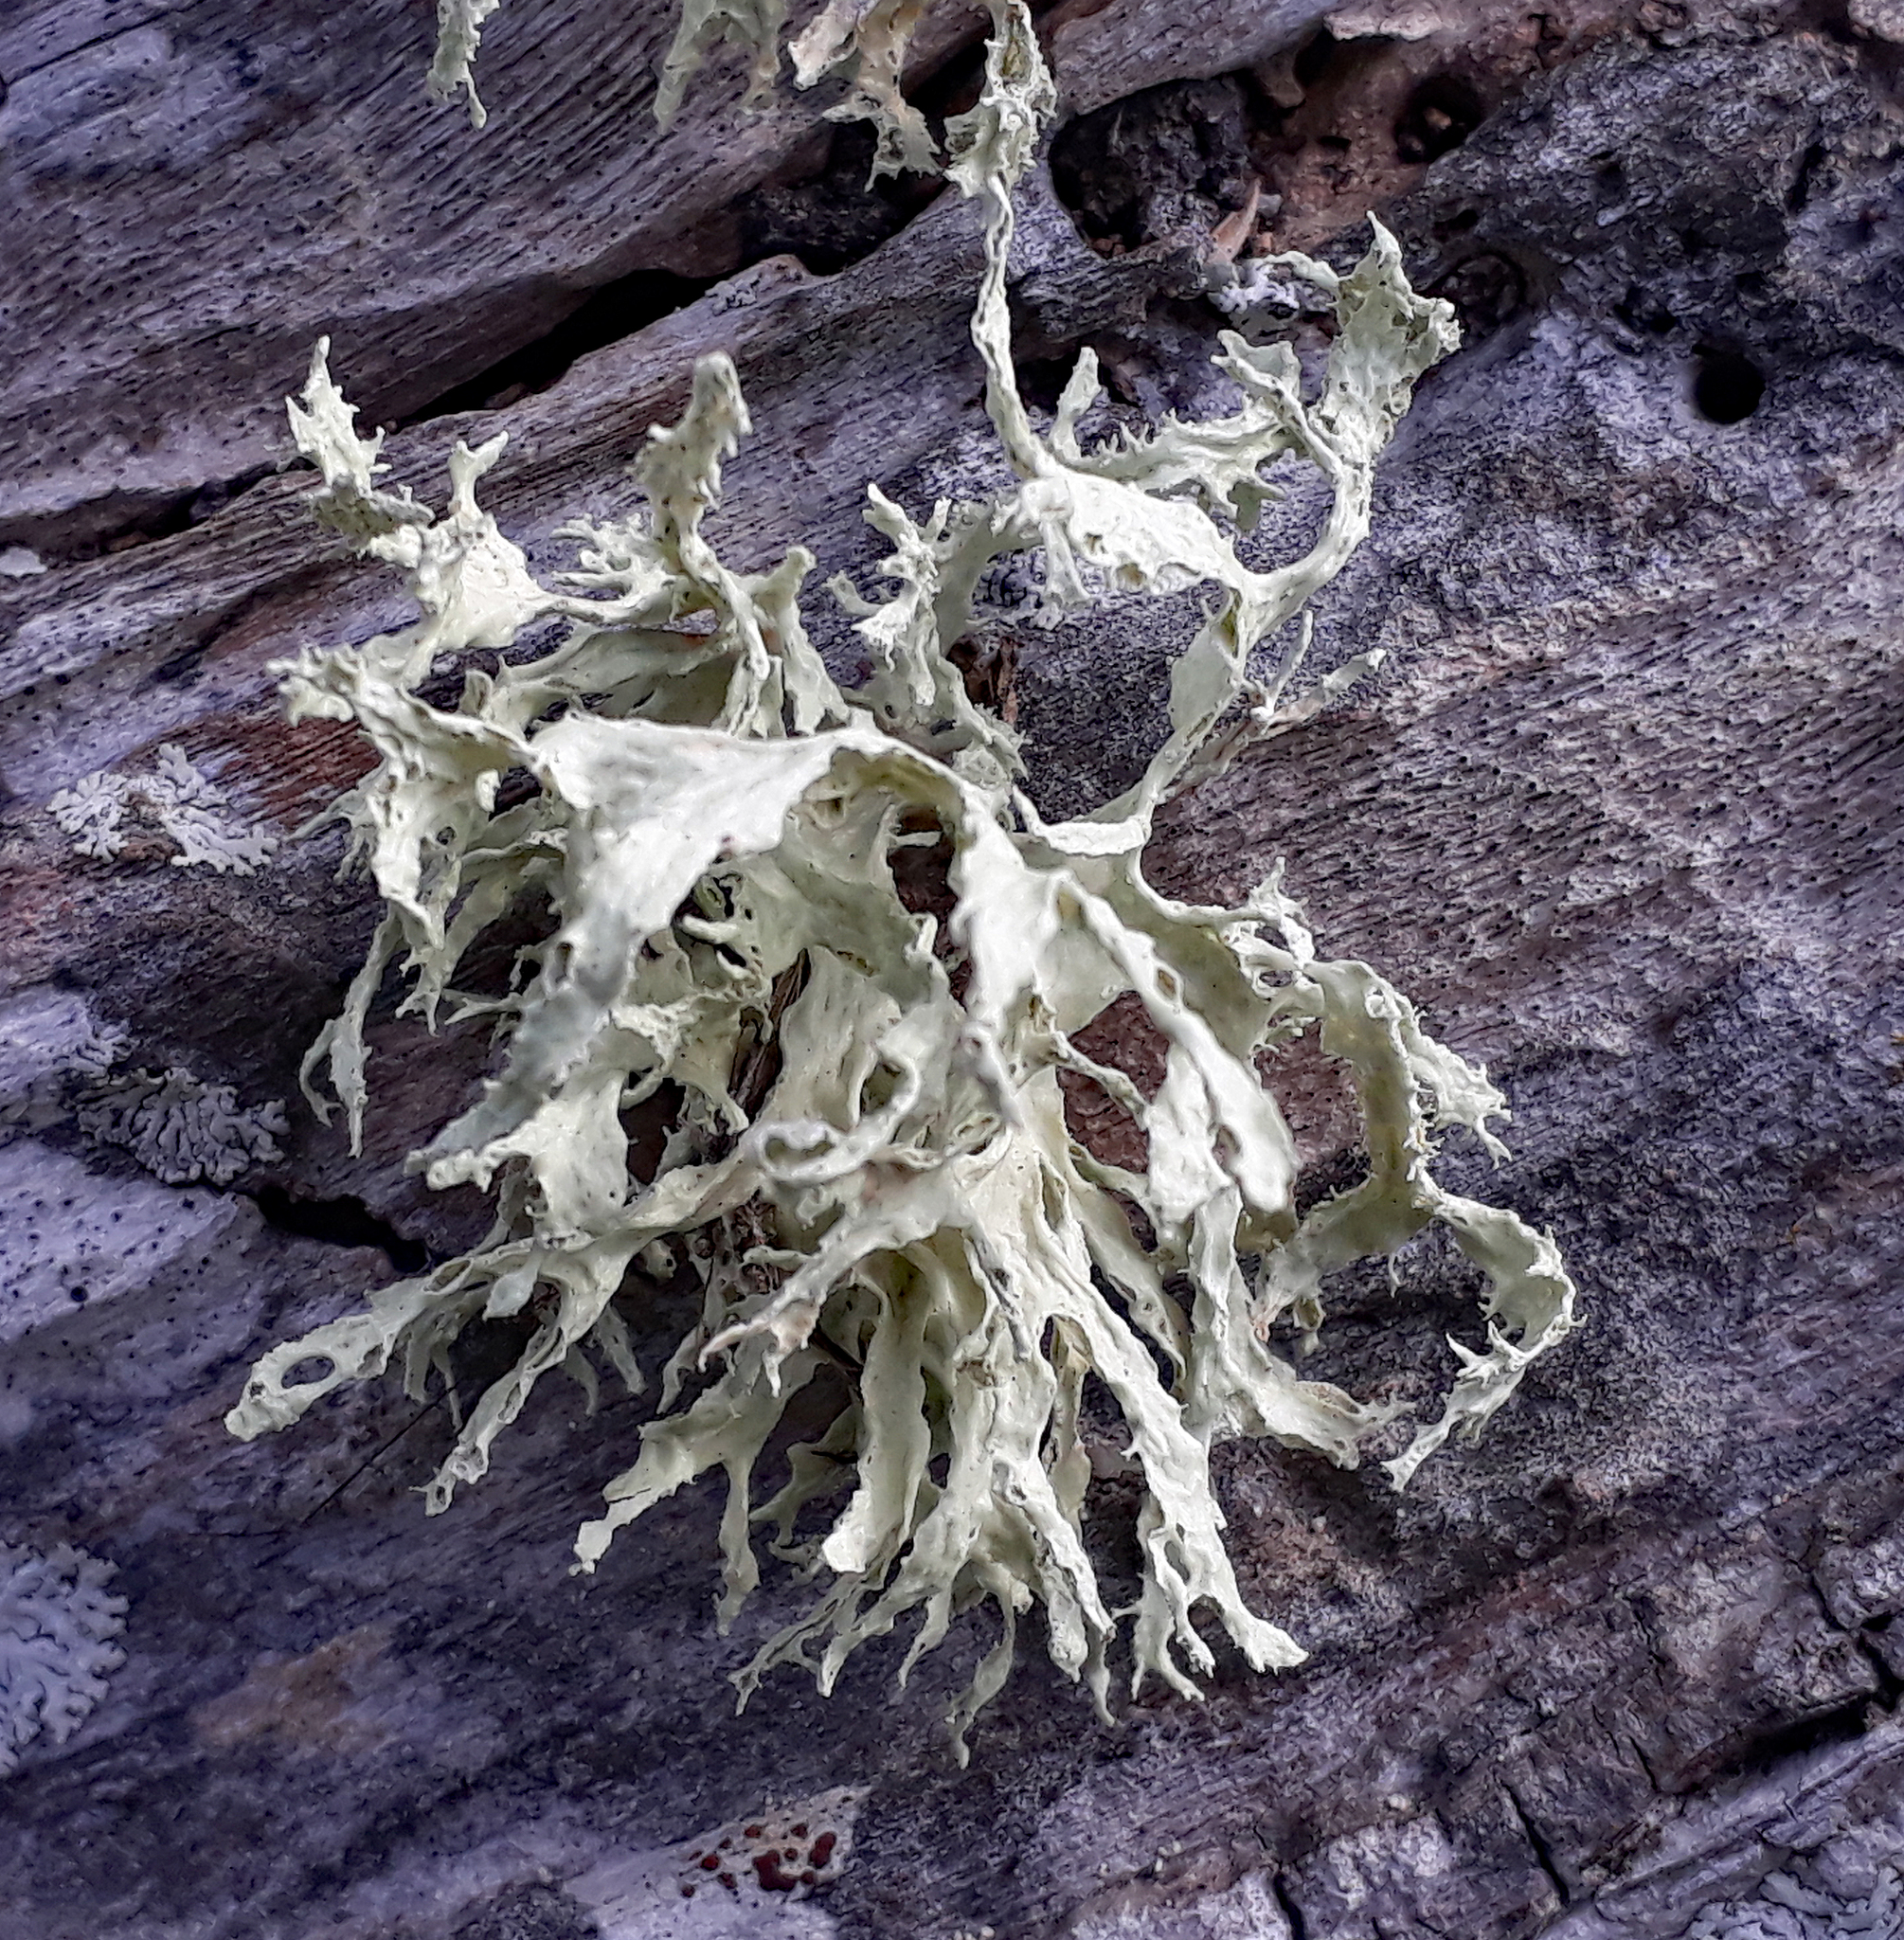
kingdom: Fungi
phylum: Ascomycota
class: Lecanoromycetes
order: Lecanorales
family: Ramalinaceae
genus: Ramalina
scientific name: Ramalina canariensis
